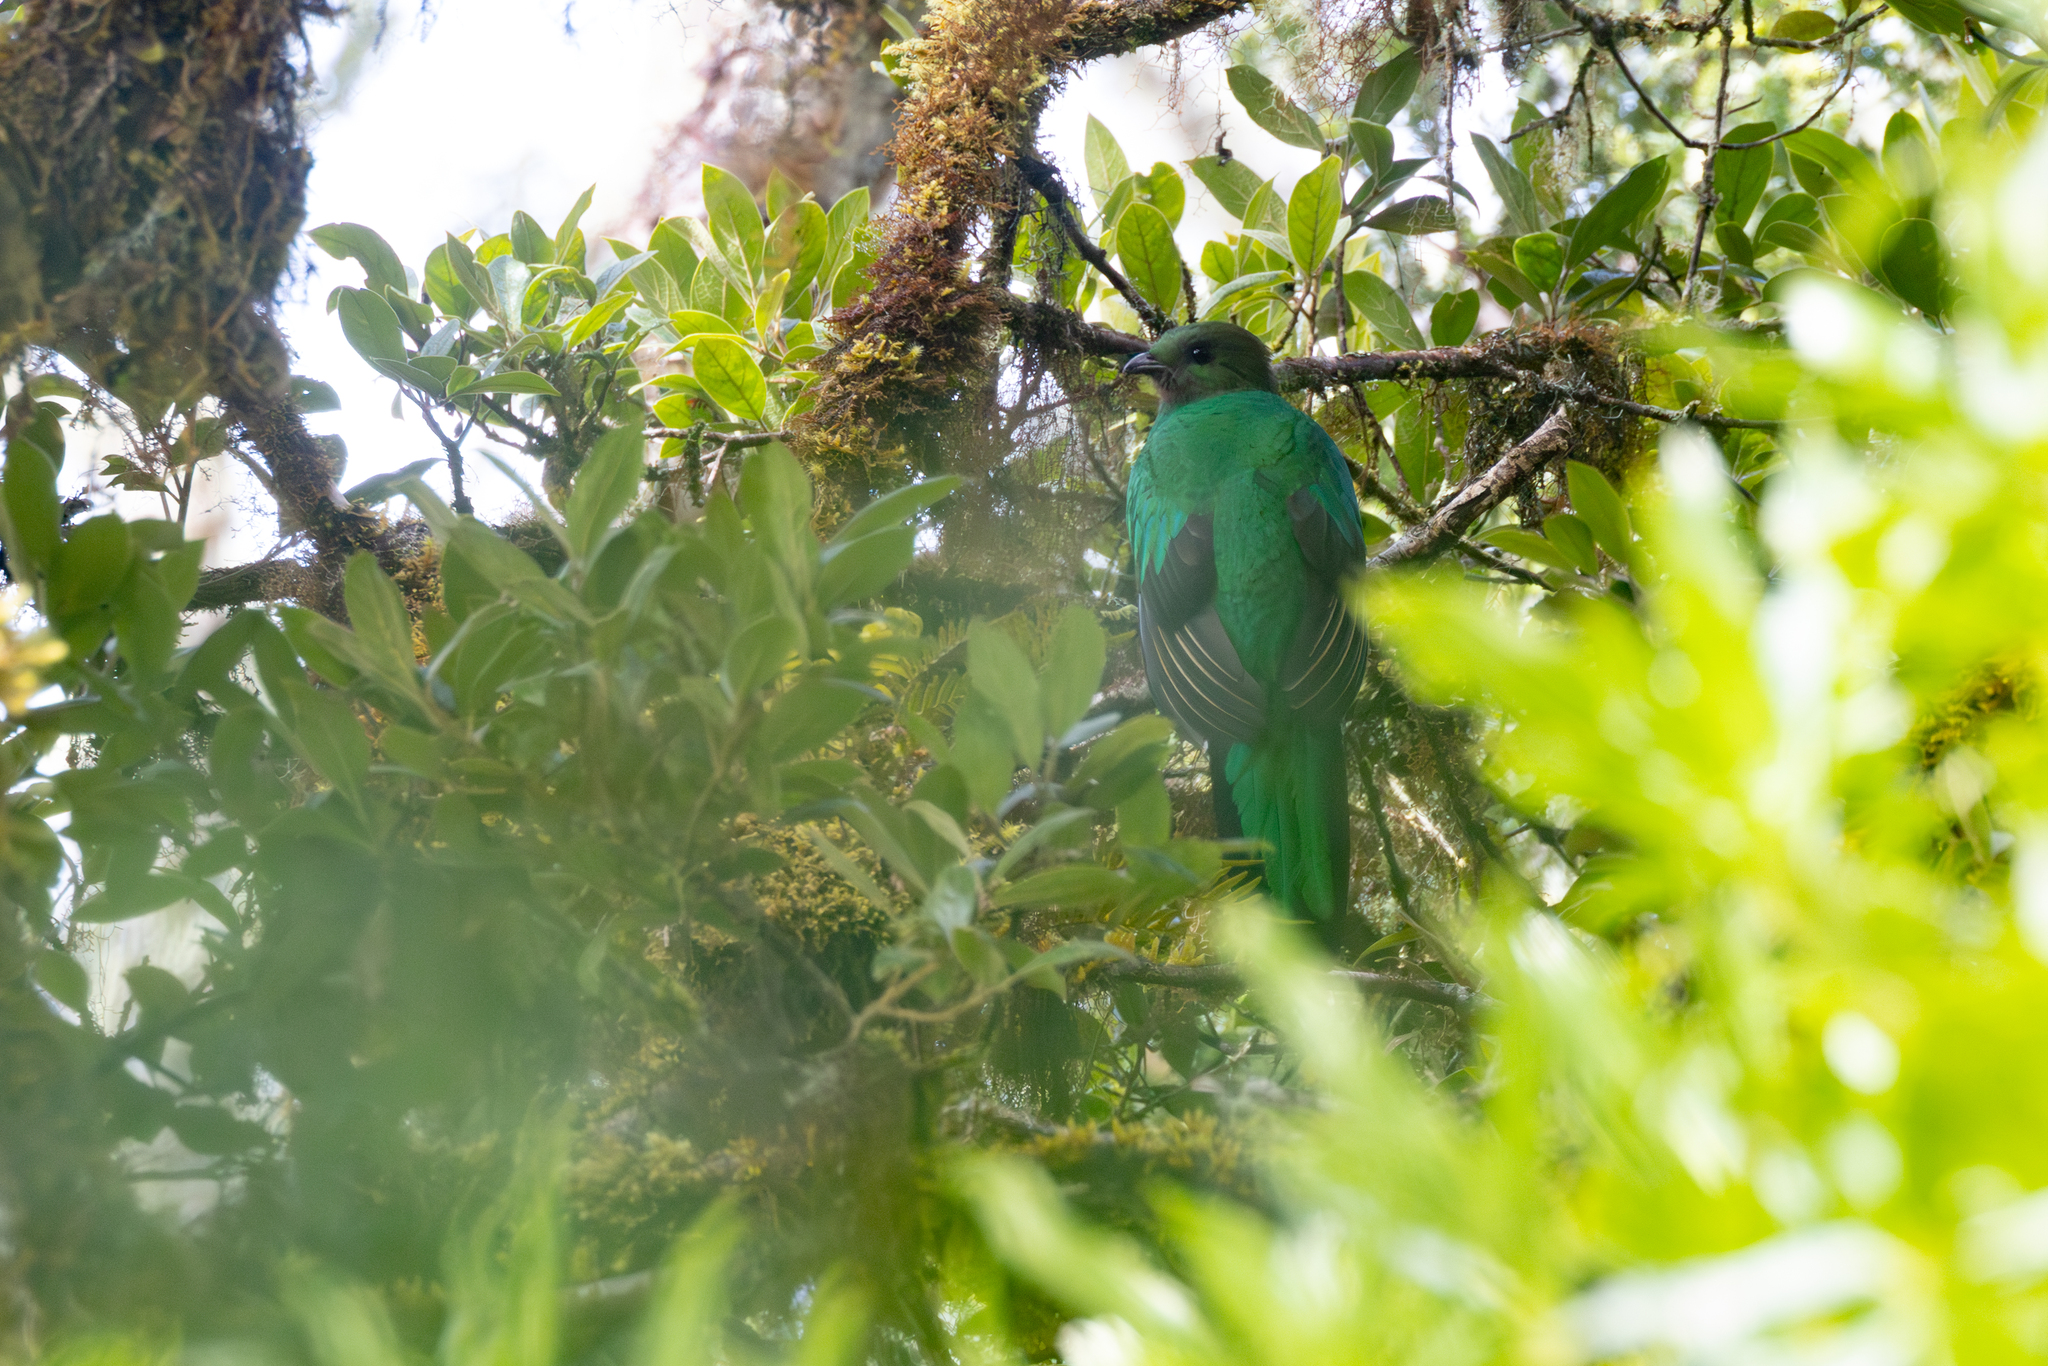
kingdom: Animalia
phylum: Chordata
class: Aves
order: Trogoniformes
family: Trogonidae
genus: Pharomachrus
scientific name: Pharomachrus mocinno
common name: Resplendent quetzal
